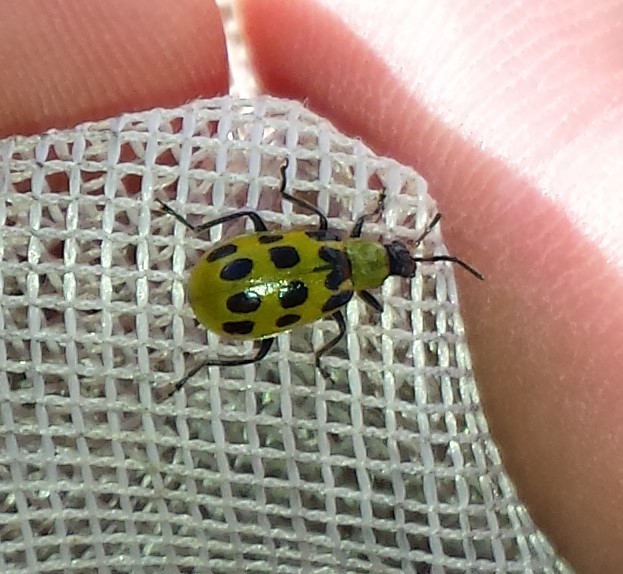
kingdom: Animalia
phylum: Arthropoda
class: Insecta
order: Coleoptera
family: Chrysomelidae
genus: Diabrotica
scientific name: Diabrotica undecimpunctata
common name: Spotted cucumber beetle
